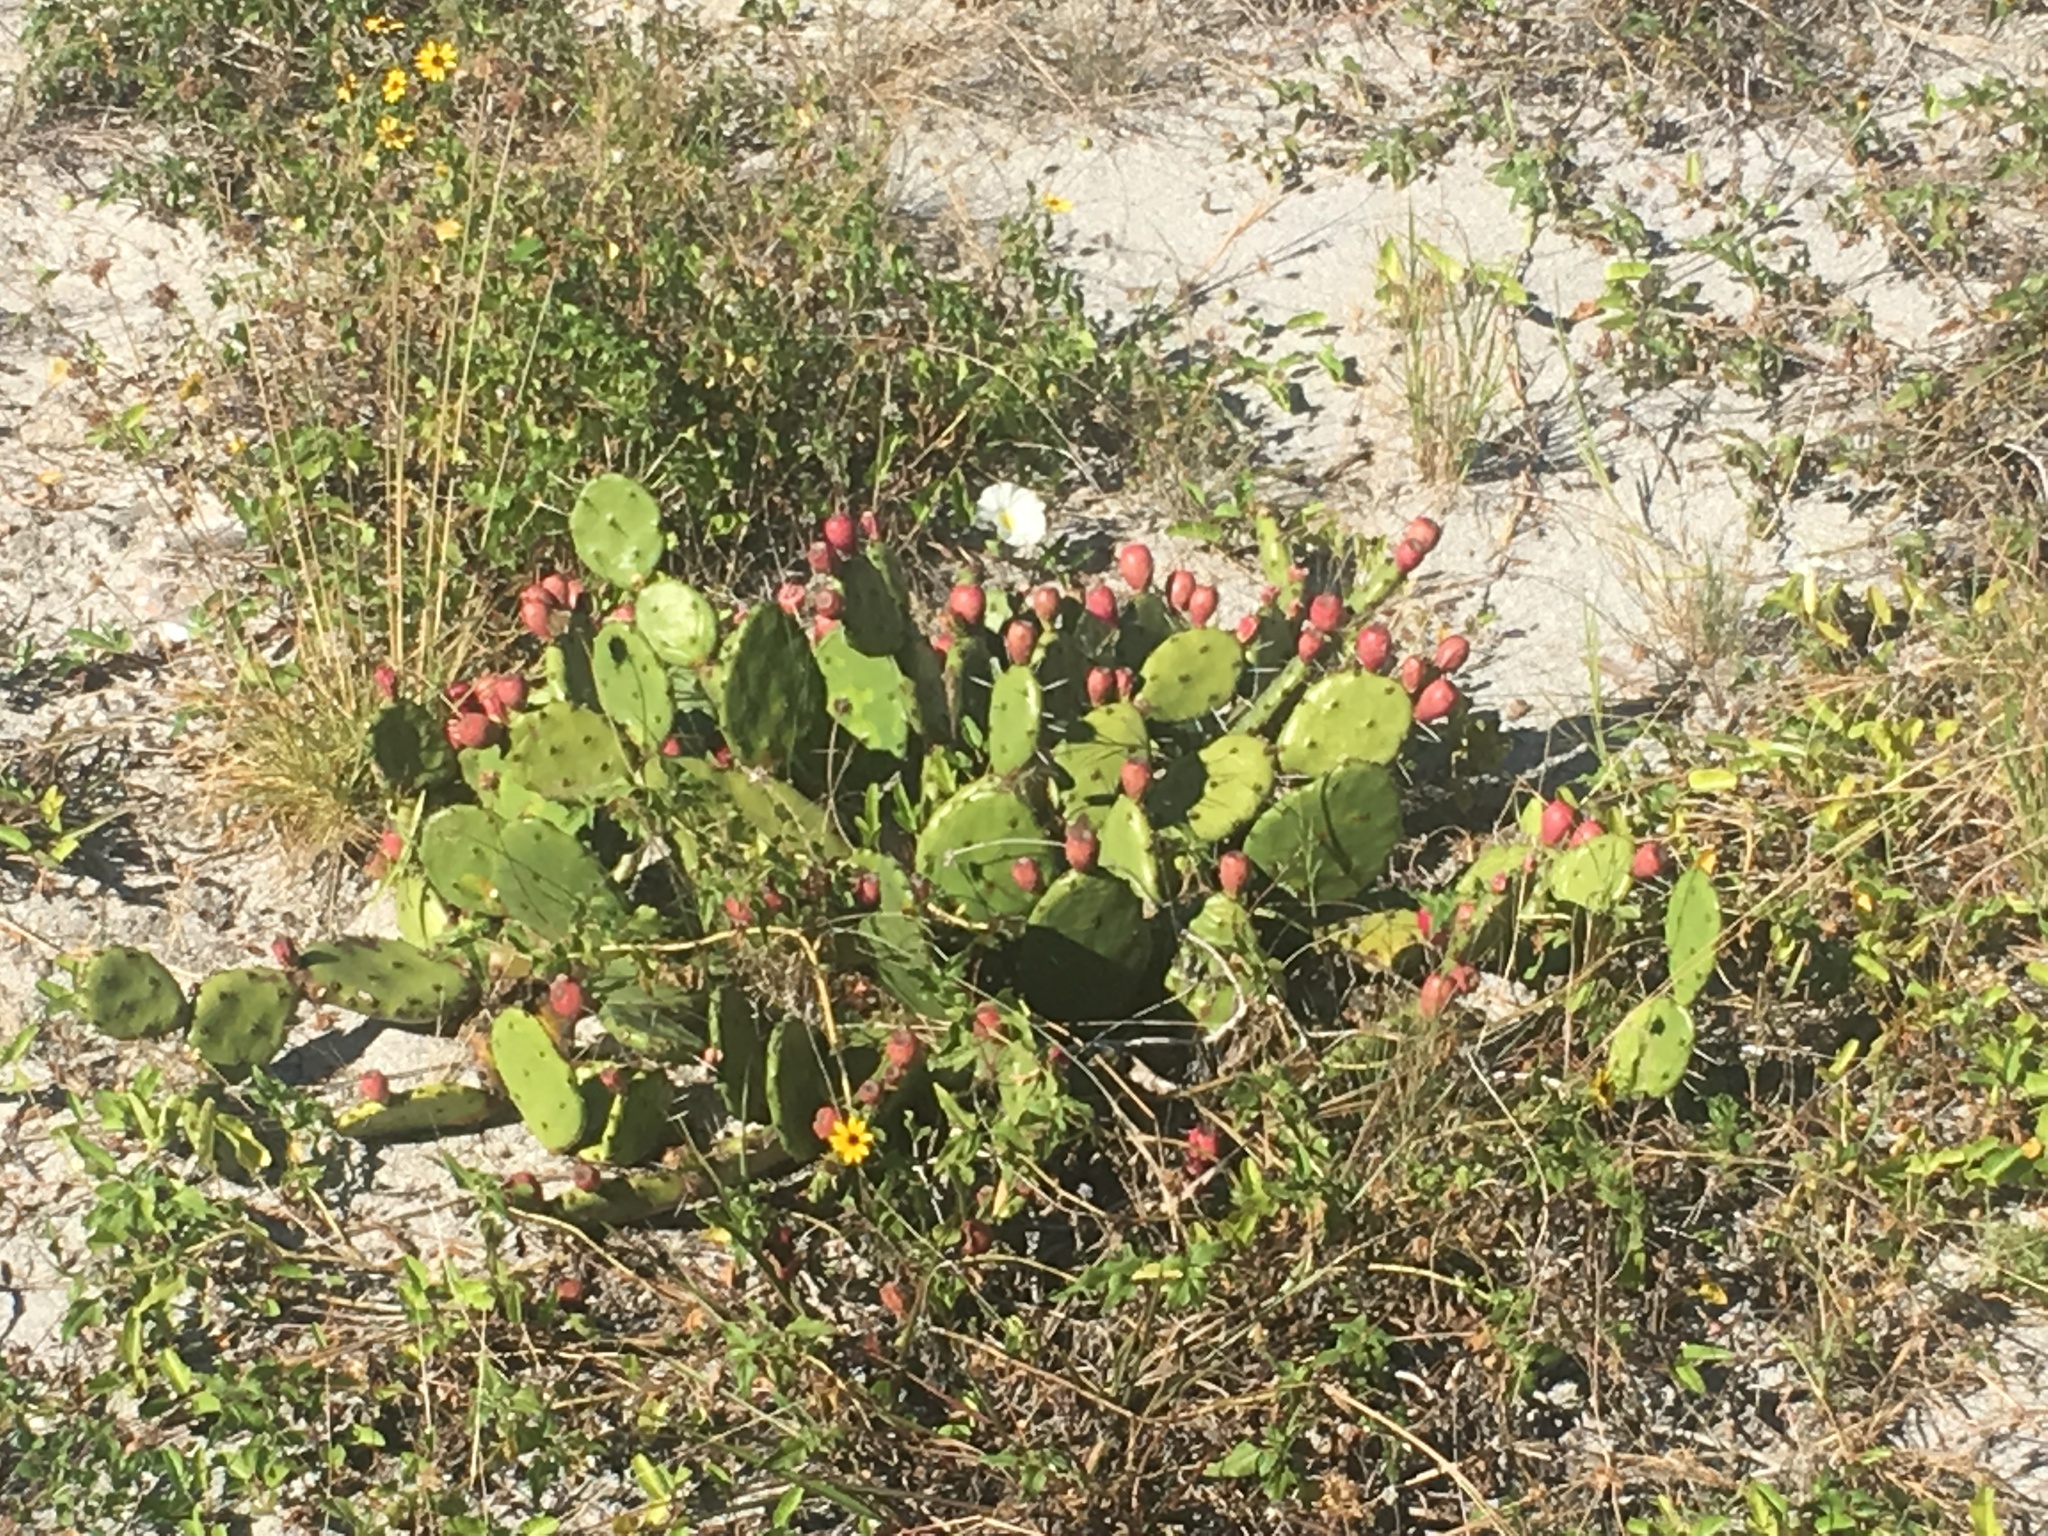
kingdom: Plantae
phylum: Tracheophyta
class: Magnoliopsida
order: Caryophyllales
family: Cactaceae
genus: Opuntia
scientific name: Opuntia austrina
